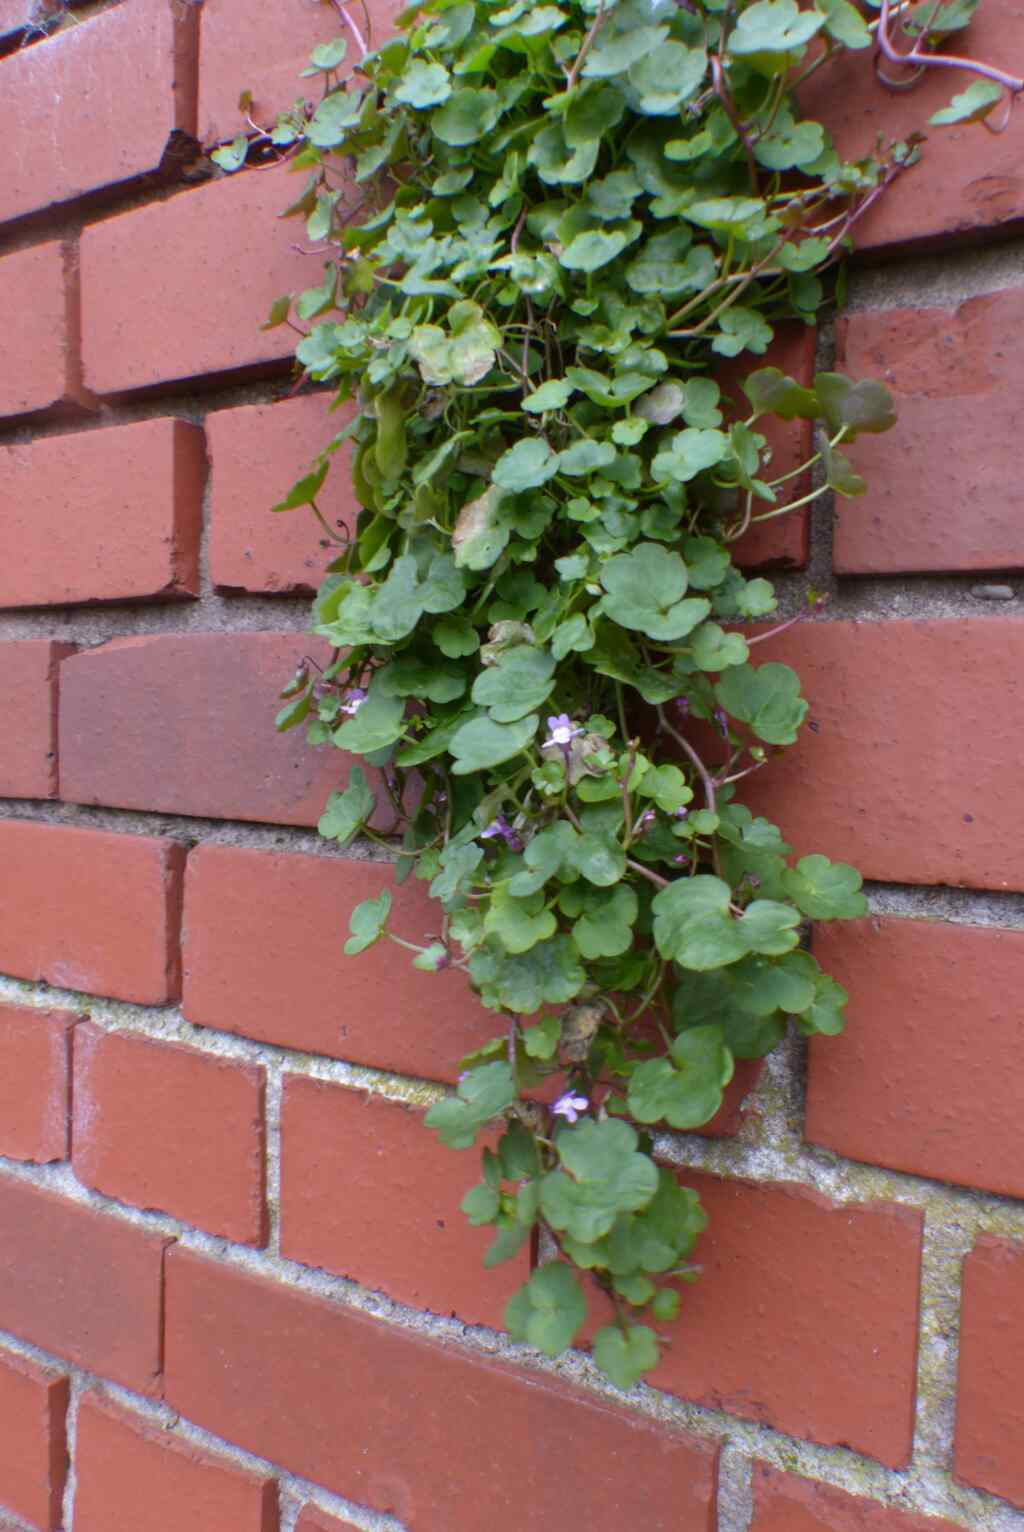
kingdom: Plantae
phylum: Tracheophyta
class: Magnoliopsida
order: Lamiales
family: Plantaginaceae
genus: Cymbalaria
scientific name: Cymbalaria muralis
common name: Ivy-leaved toadflax
